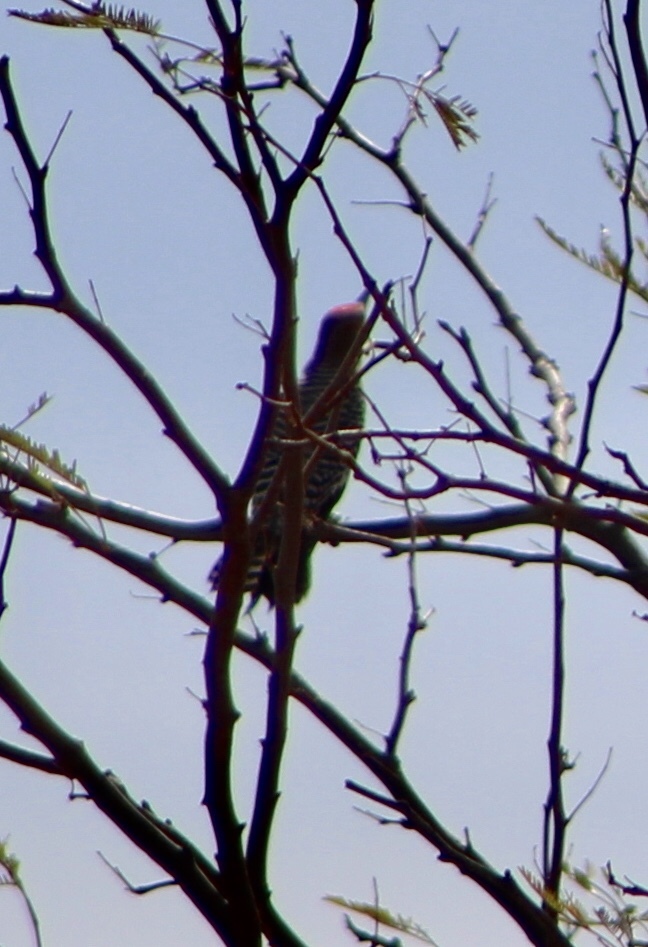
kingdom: Animalia
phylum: Chordata
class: Aves
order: Piciformes
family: Picidae
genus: Melanerpes
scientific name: Melanerpes uropygialis
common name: Gila woodpecker
